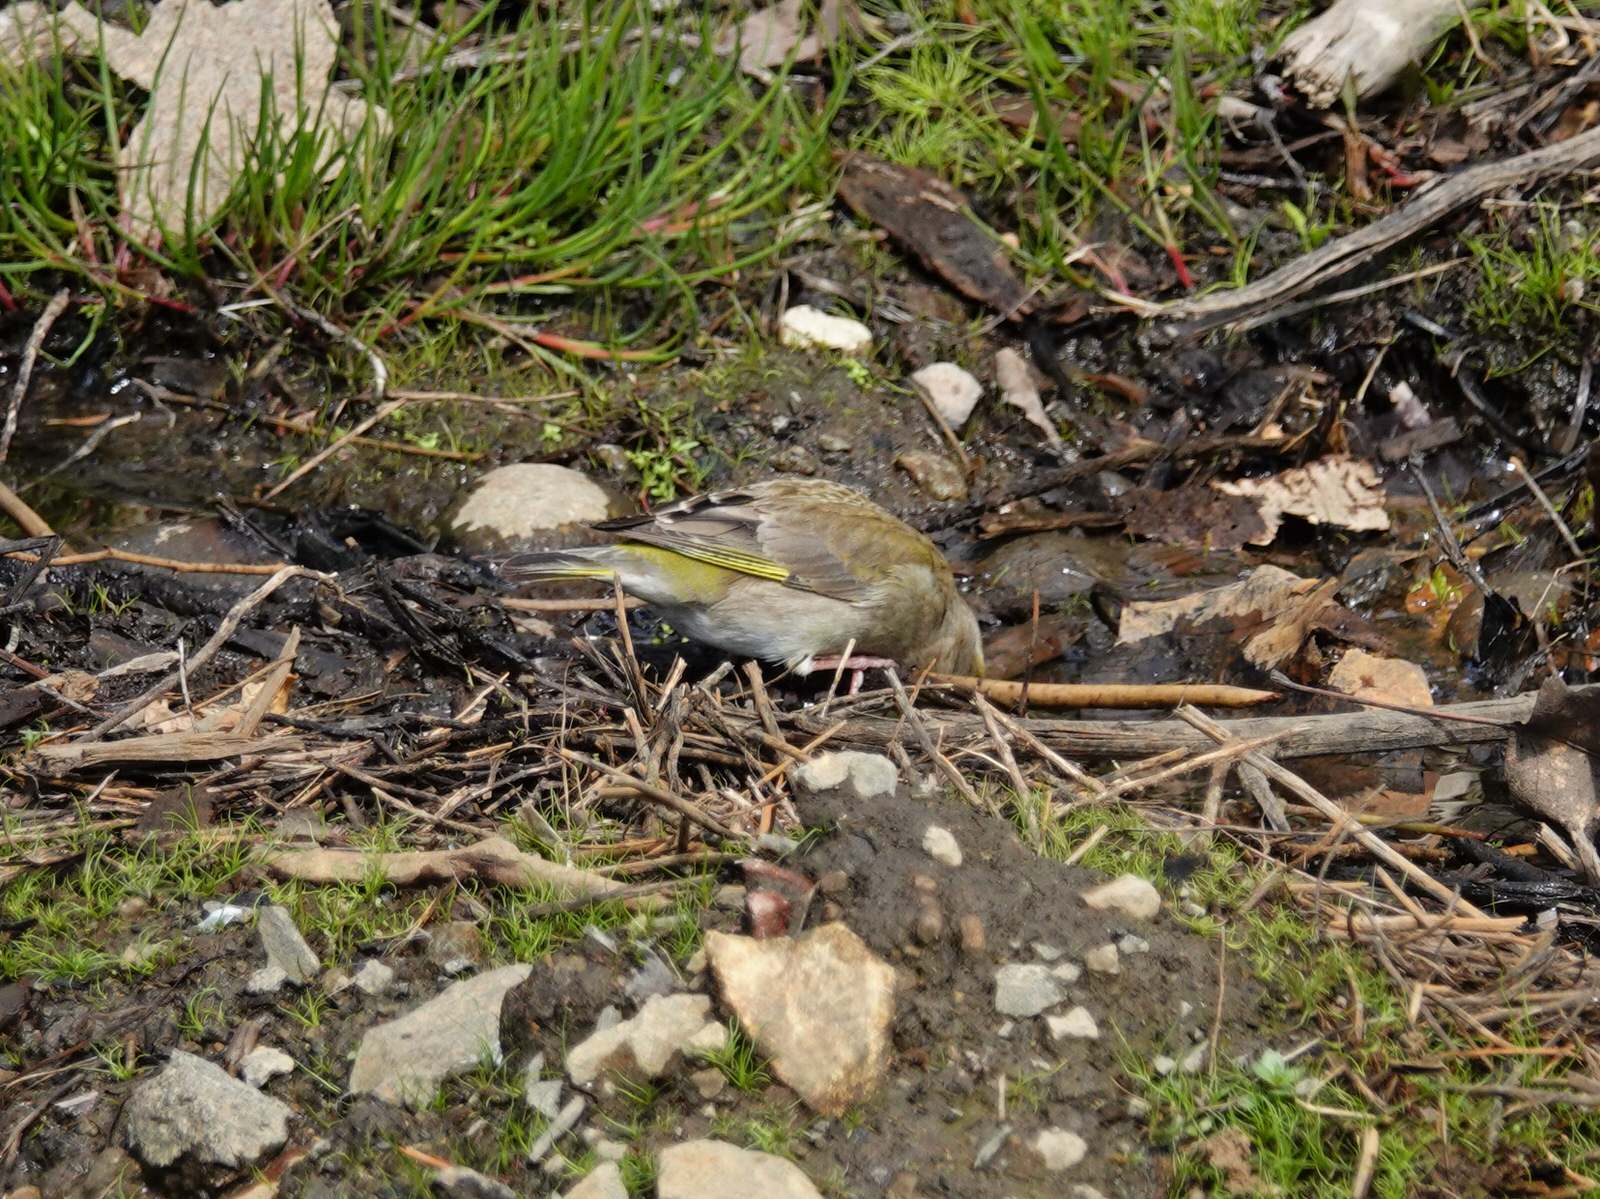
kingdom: Plantae
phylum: Tracheophyta
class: Liliopsida
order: Poales
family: Poaceae
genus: Chloris
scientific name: Chloris chloris
